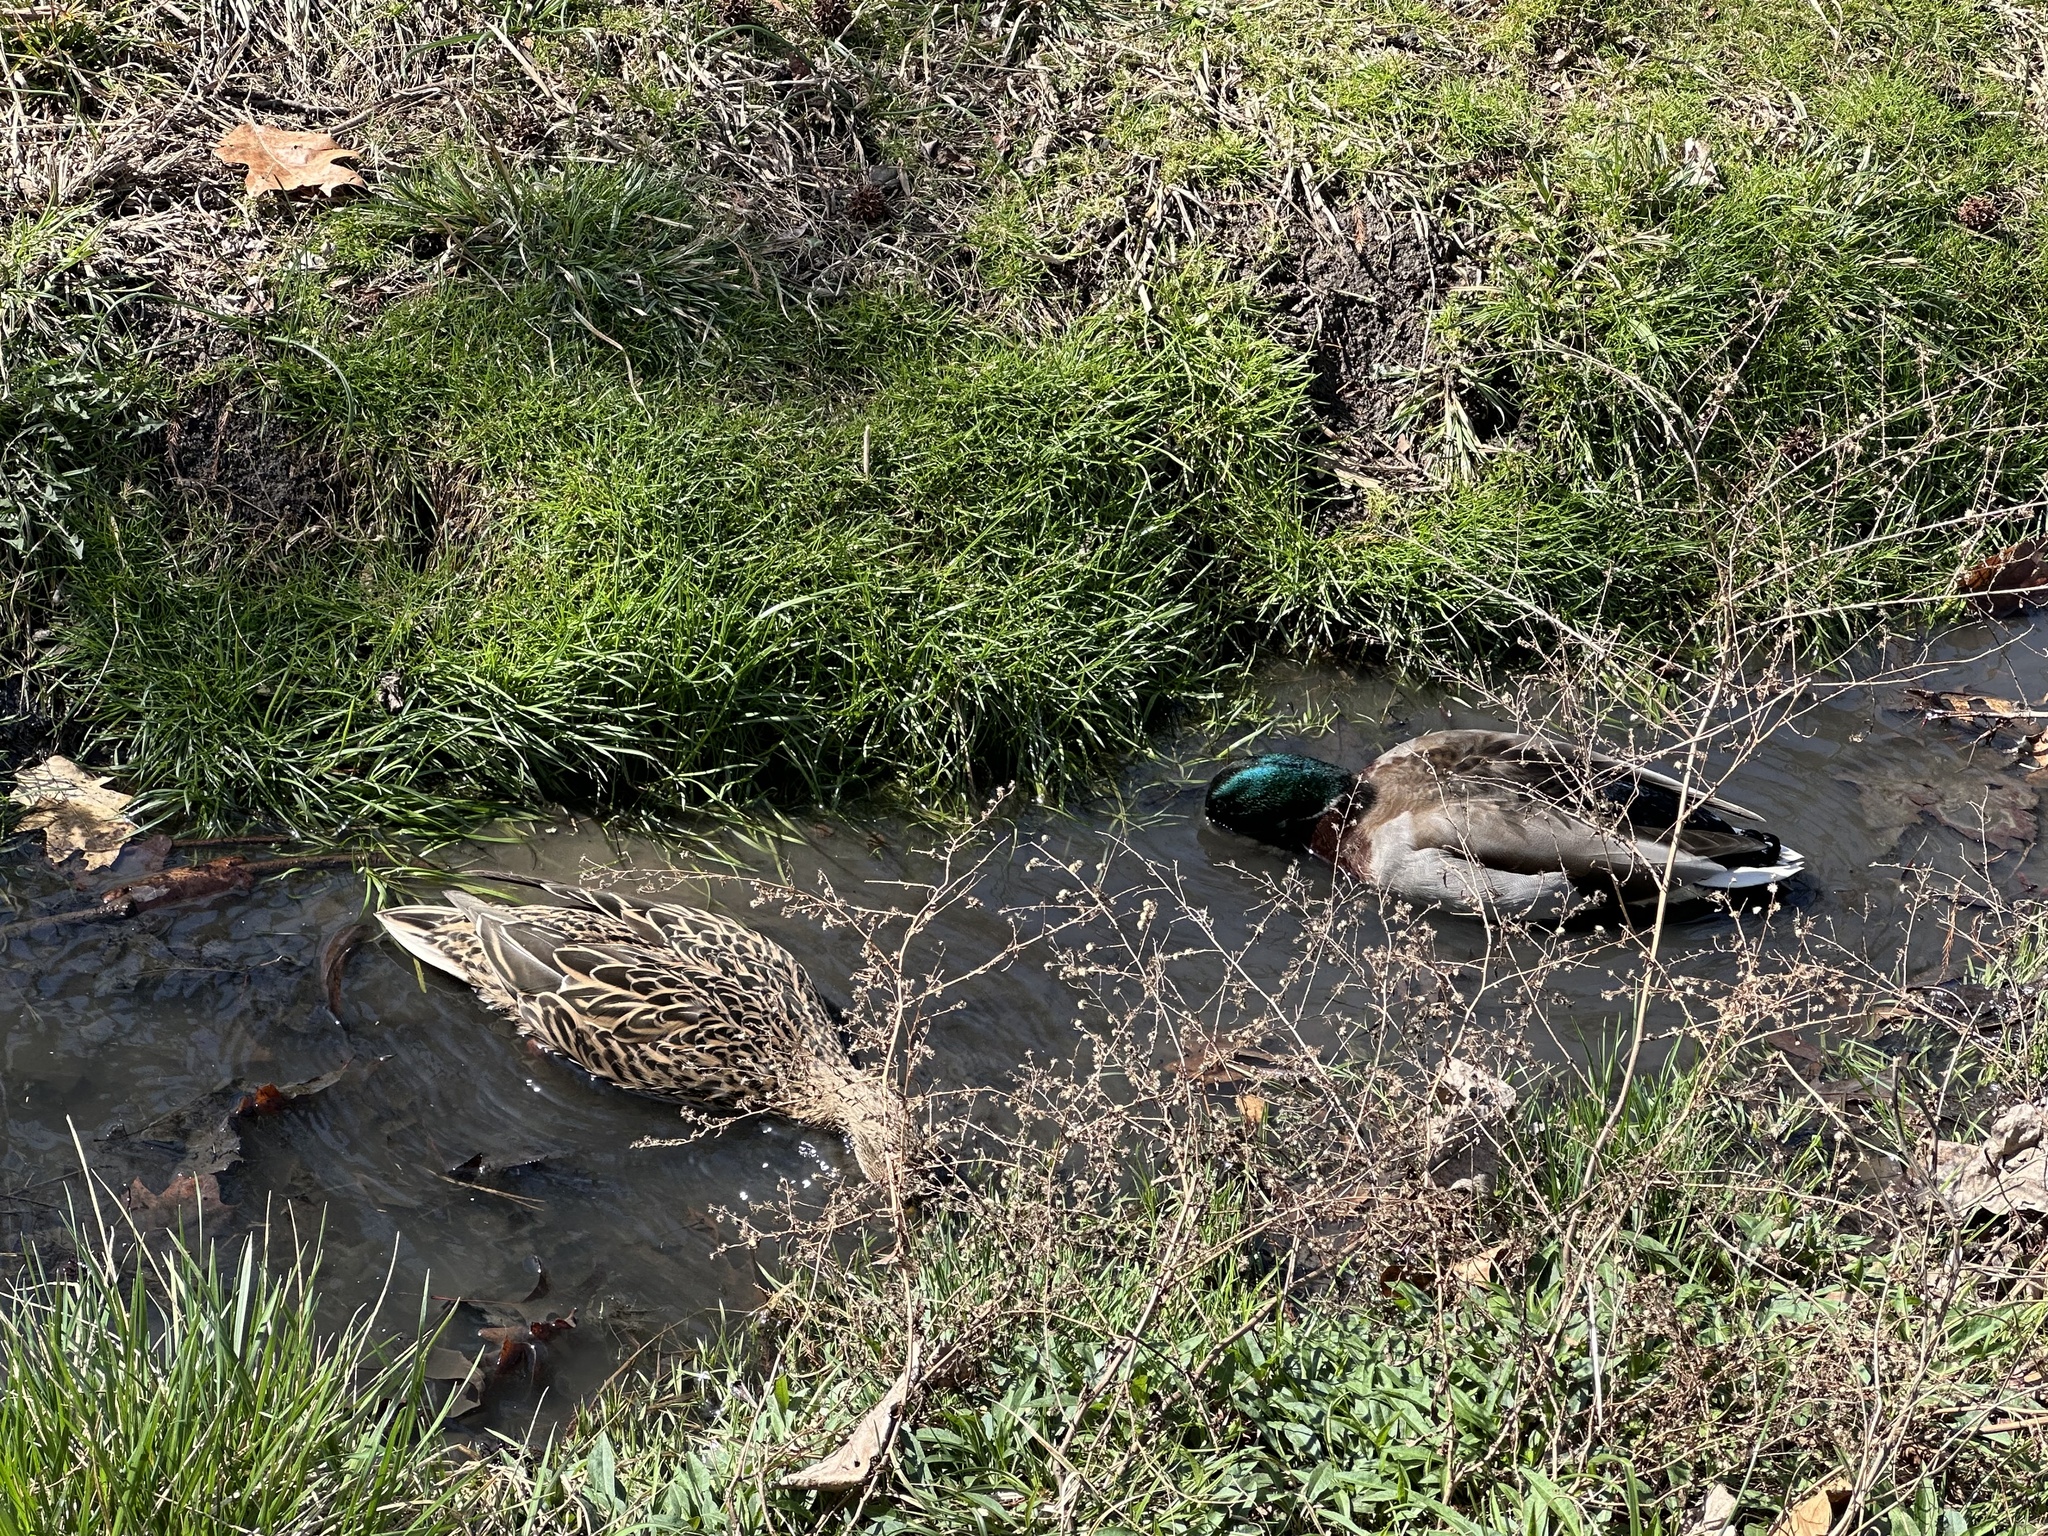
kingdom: Animalia
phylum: Chordata
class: Aves
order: Anseriformes
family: Anatidae
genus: Anas
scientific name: Anas platyrhynchos
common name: Mallard
